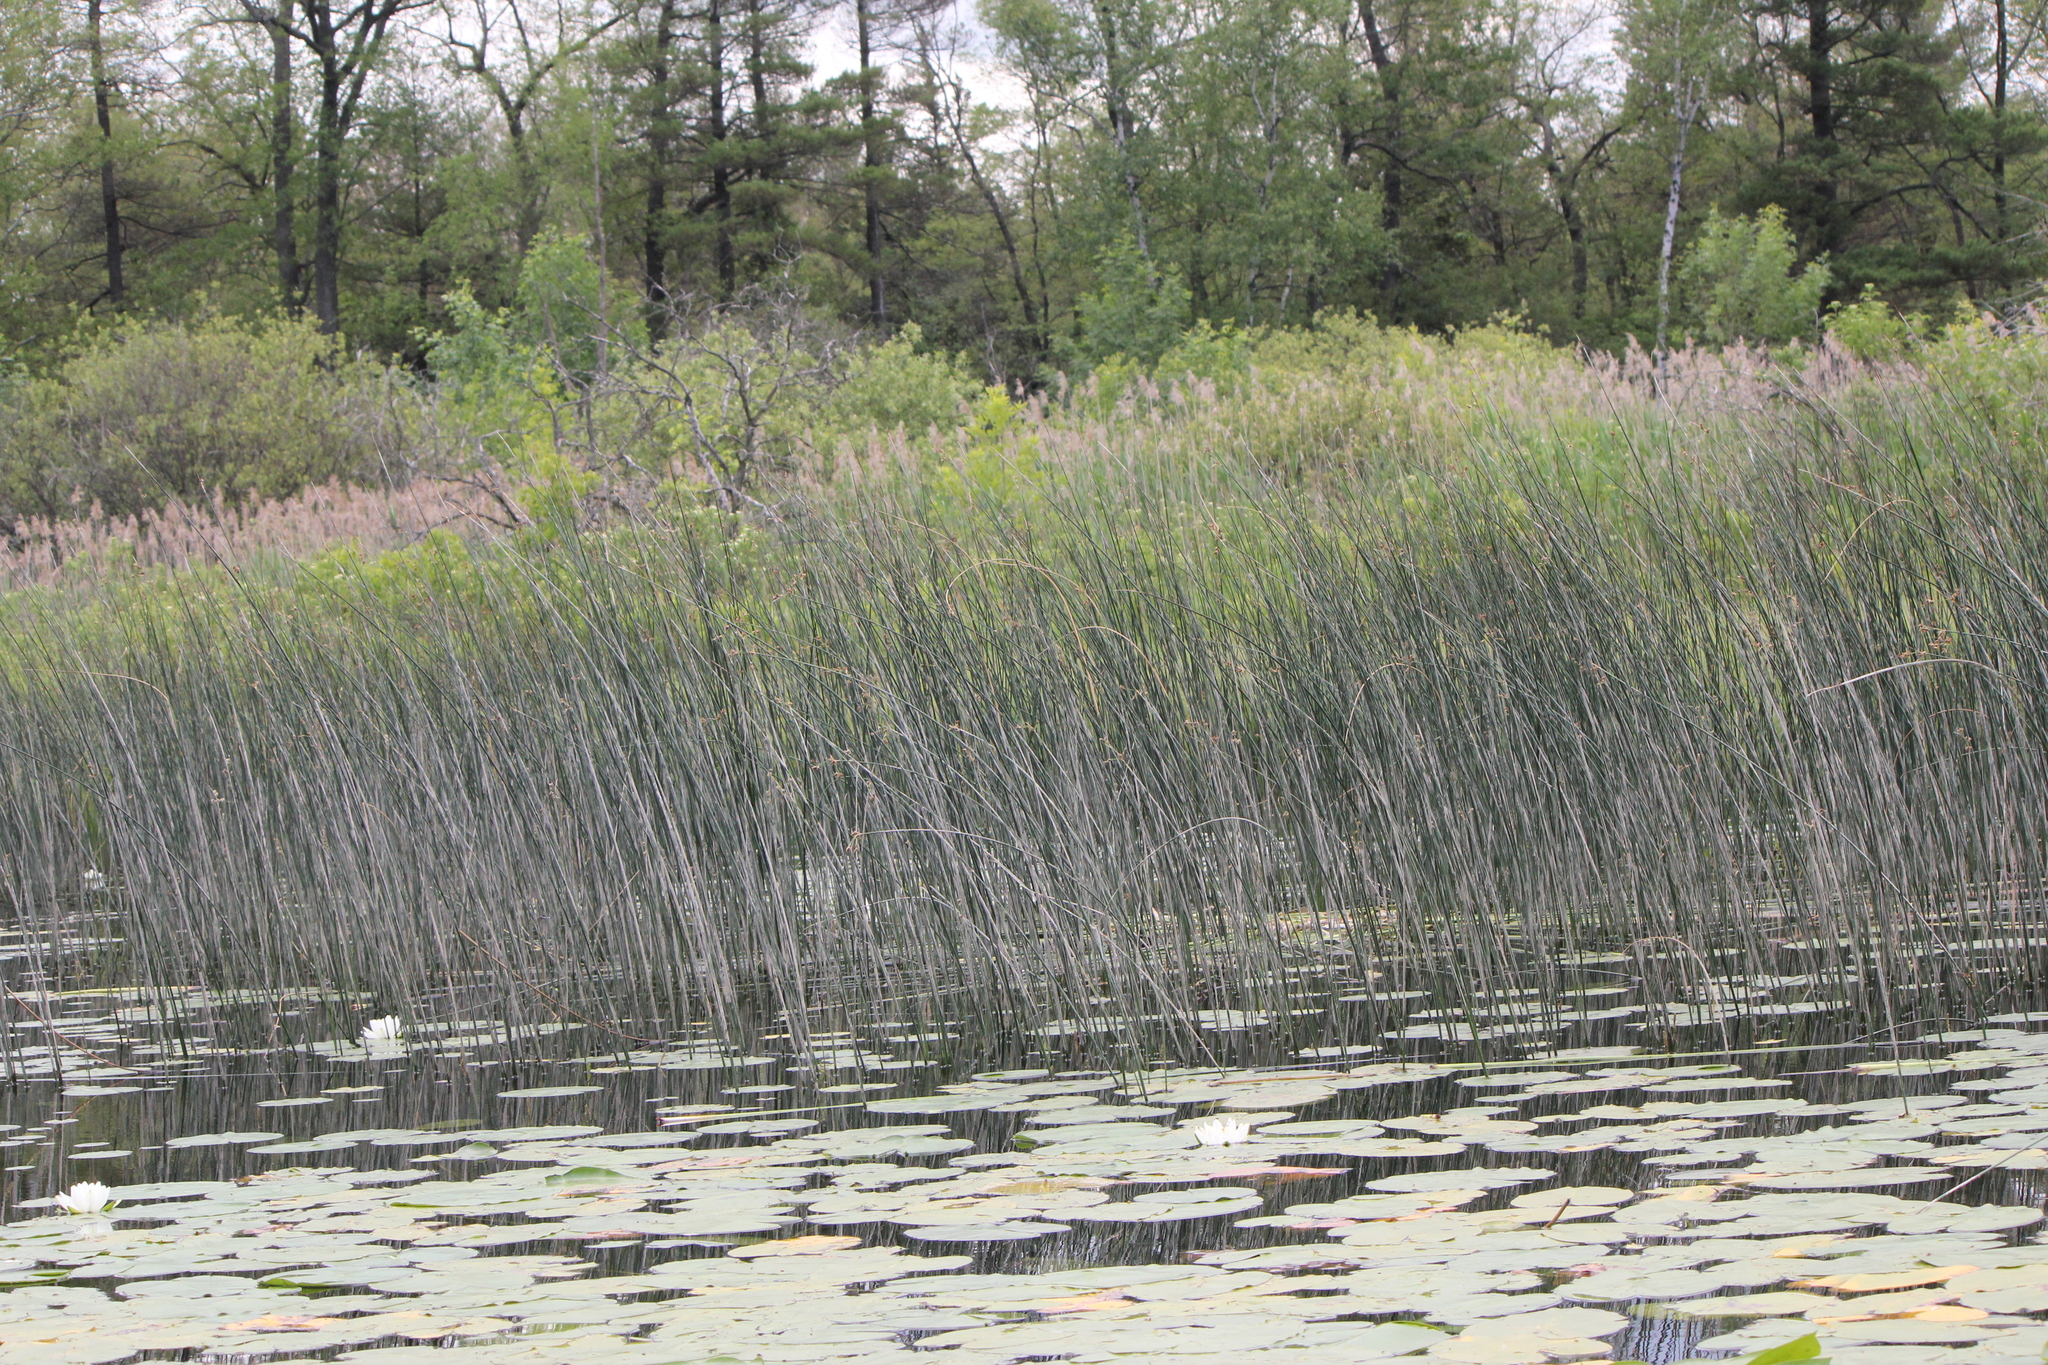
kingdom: Plantae
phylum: Tracheophyta
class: Liliopsida
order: Poales
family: Cyperaceae
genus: Schoenoplectus
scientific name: Schoenoplectus acutus
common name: Hardstem bulrush
